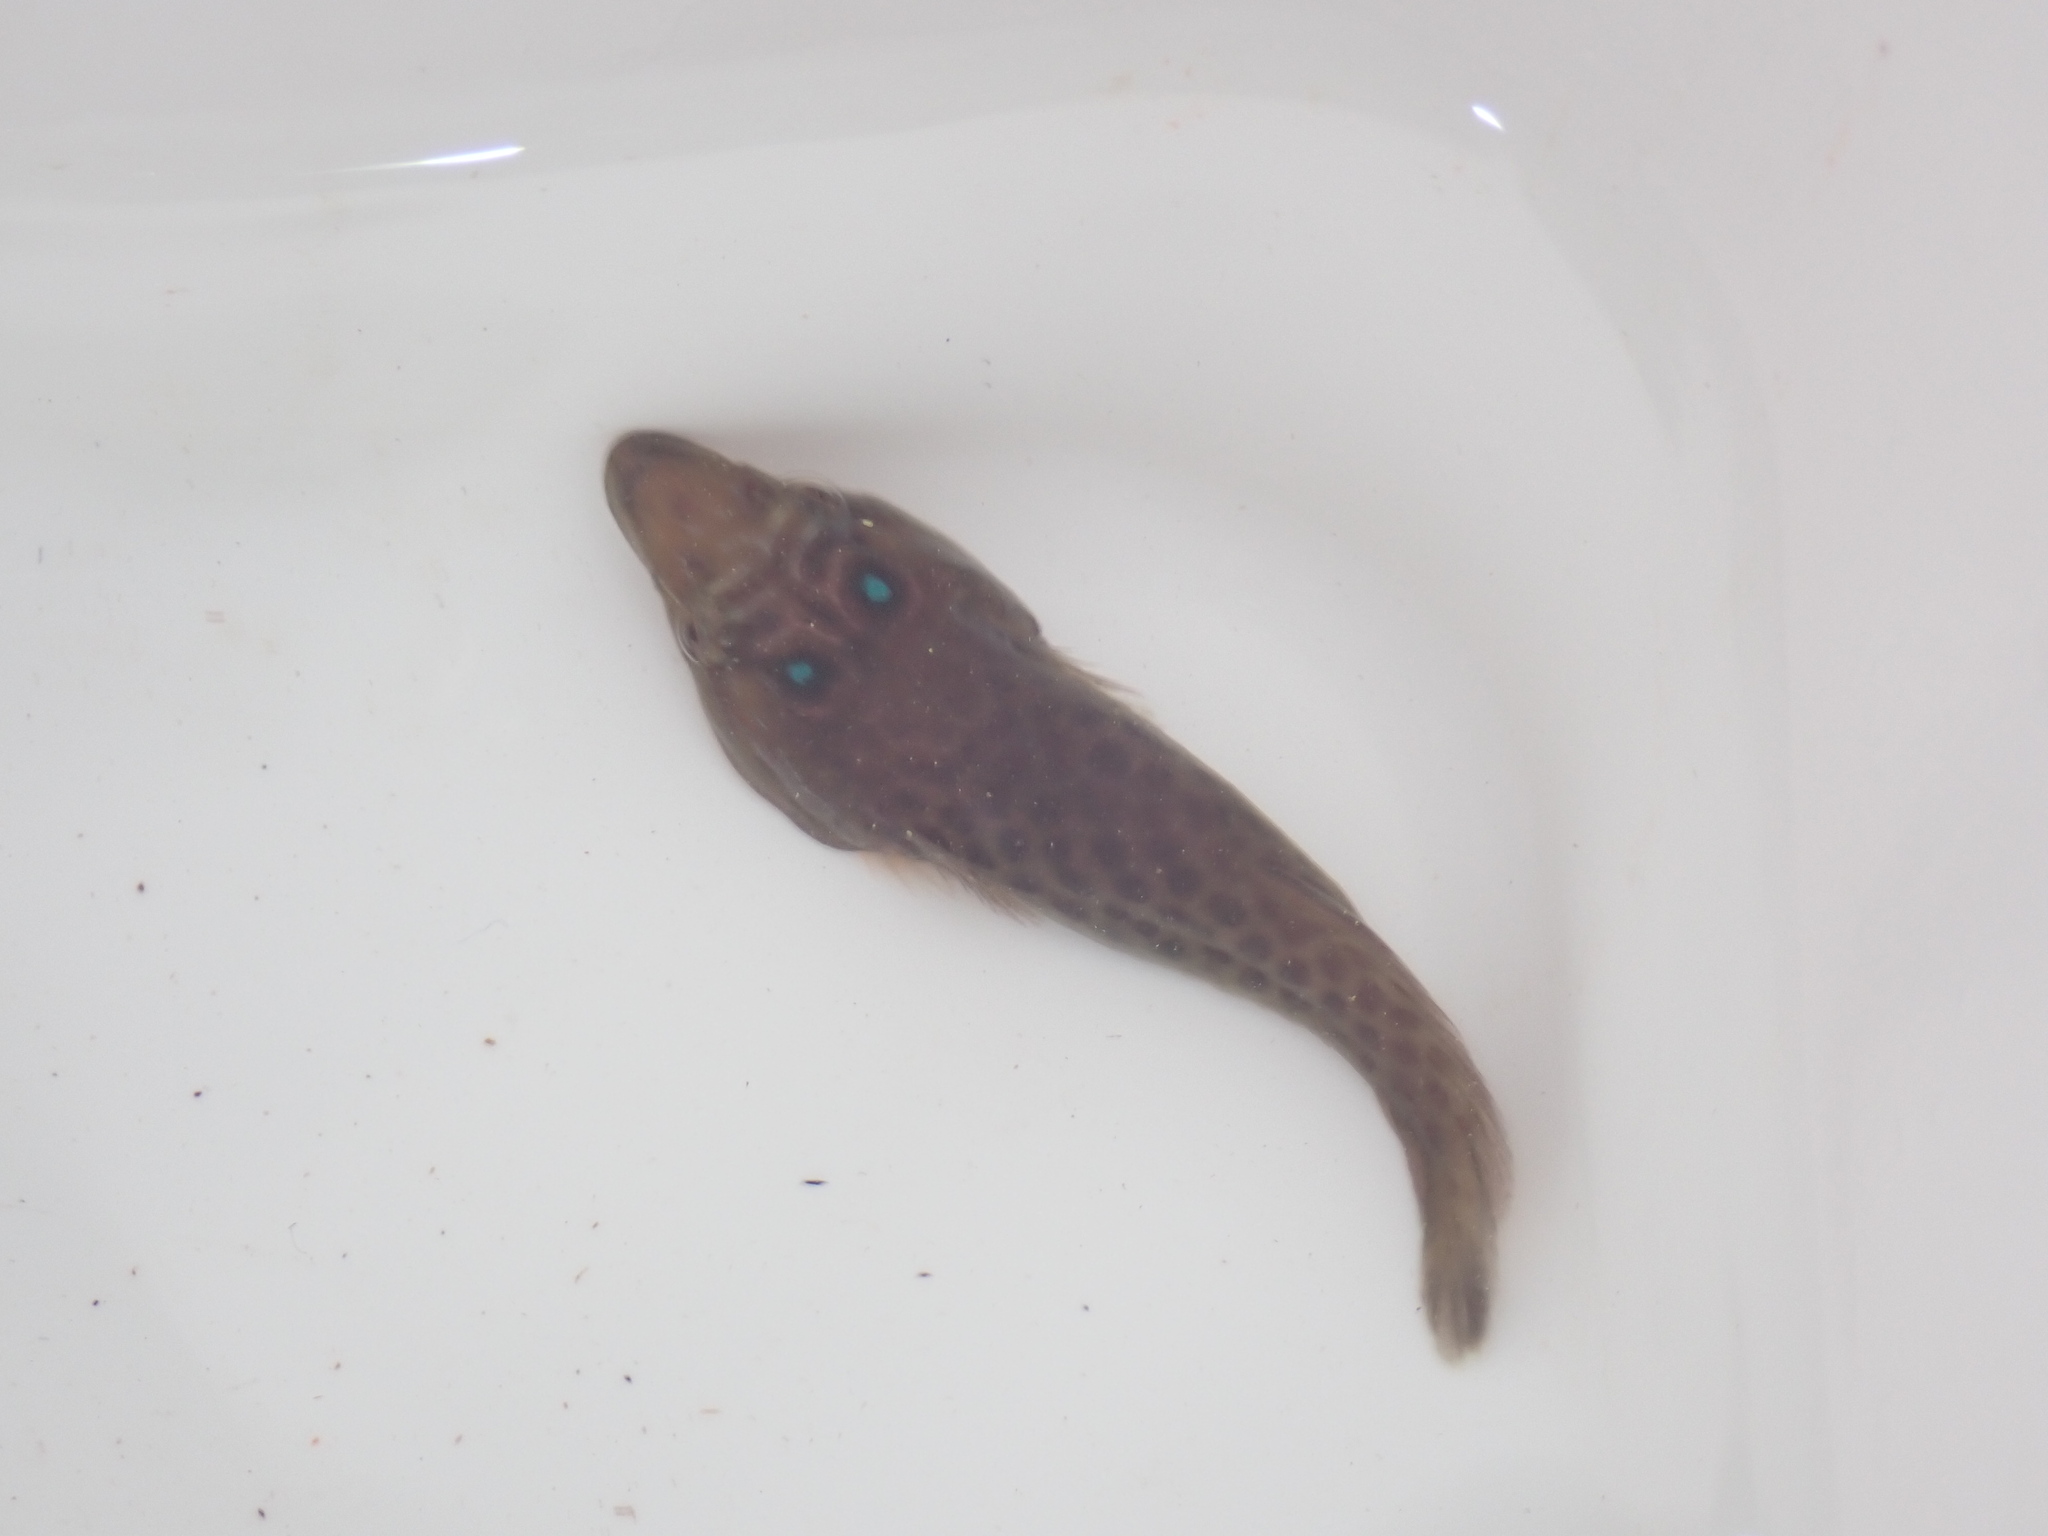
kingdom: Animalia
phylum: Chordata
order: Gobiesociformes
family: Gobiesocidae
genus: Lepadogaster
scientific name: Lepadogaster purpurea
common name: Cornish sucker
